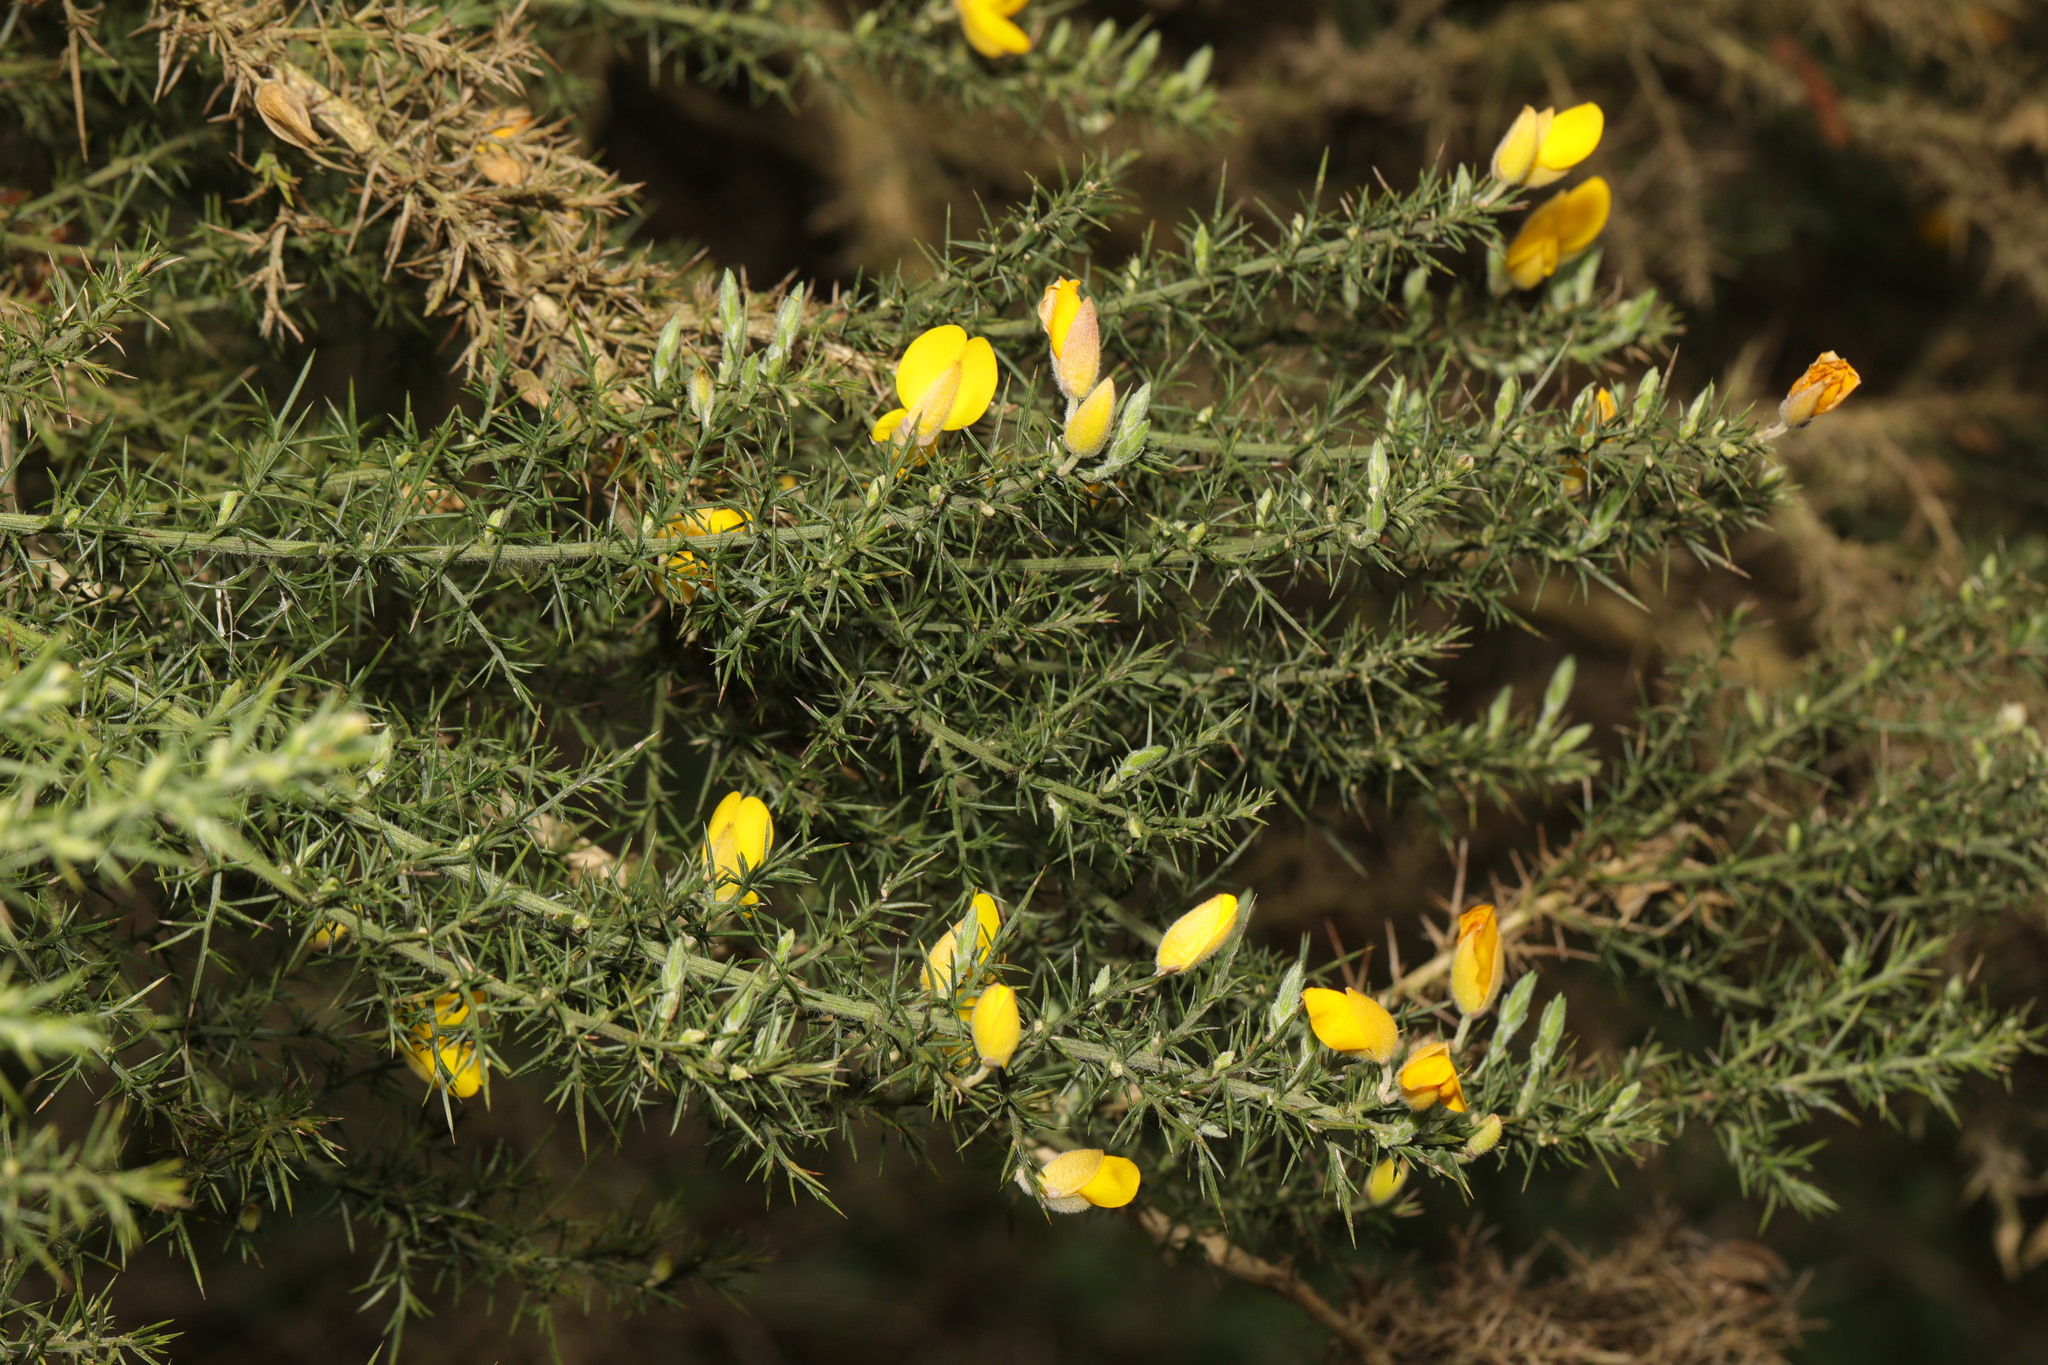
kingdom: Plantae
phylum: Tracheophyta
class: Magnoliopsida
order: Fabales
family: Fabaceae
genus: Ulex
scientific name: Ulex europaeus
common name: Common gorse
